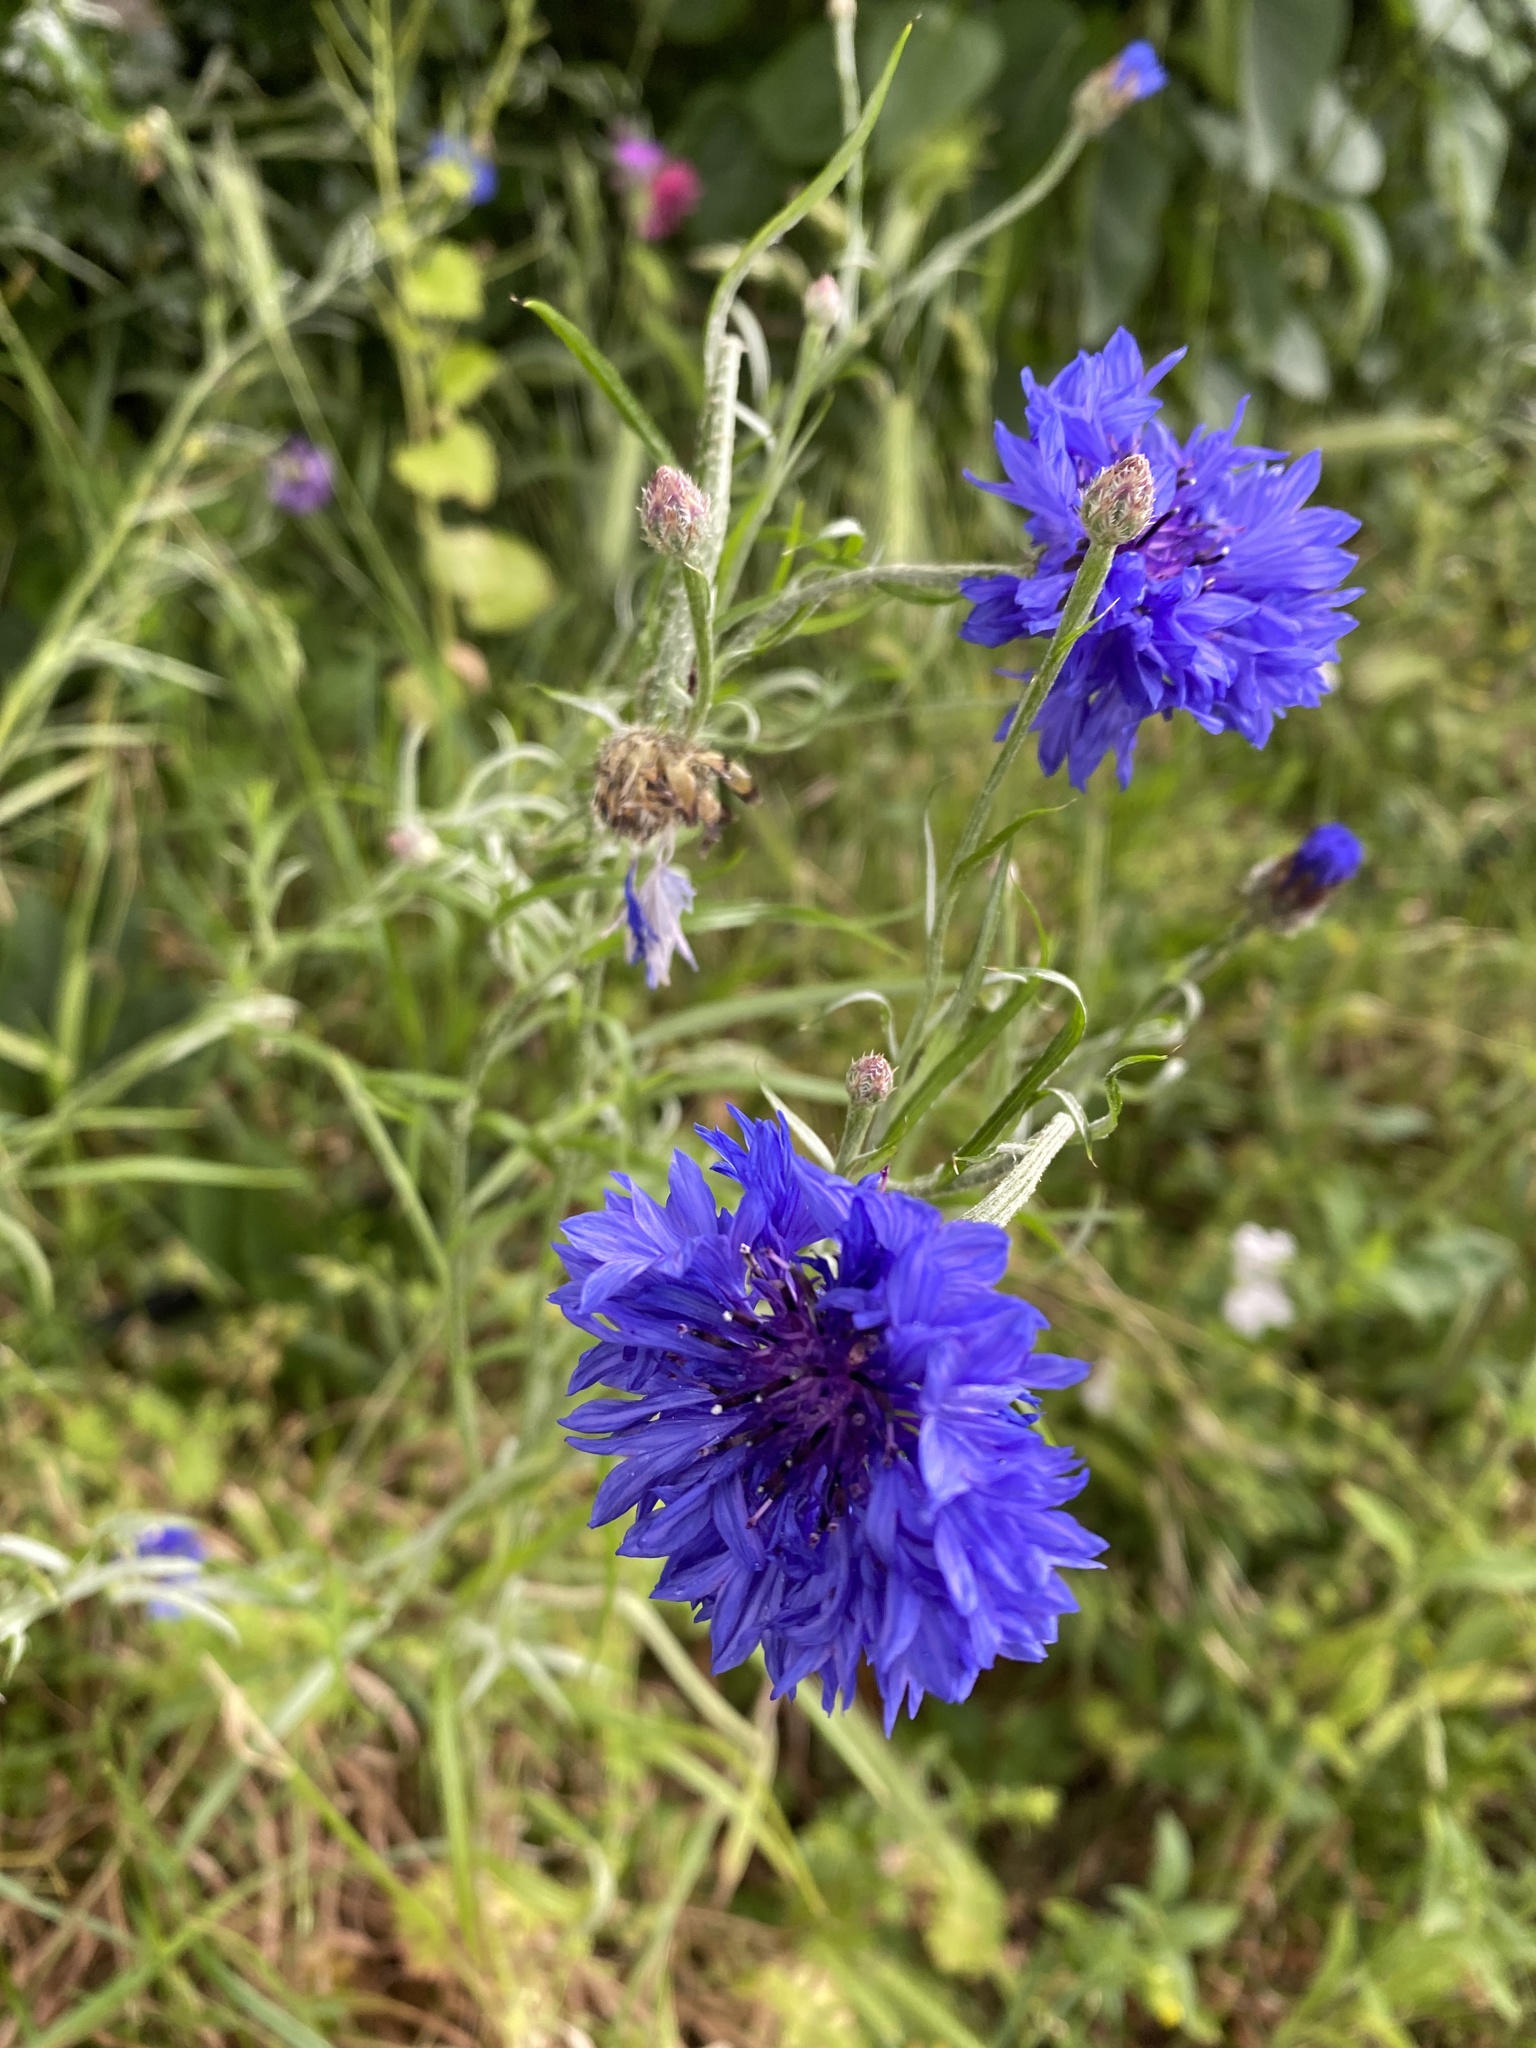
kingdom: Plantae
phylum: Tracheophyta
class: Magnoliopsida
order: Asterales
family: Asteraceae
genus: Centaurea
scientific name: Centaurea cyanus
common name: Cornflower
